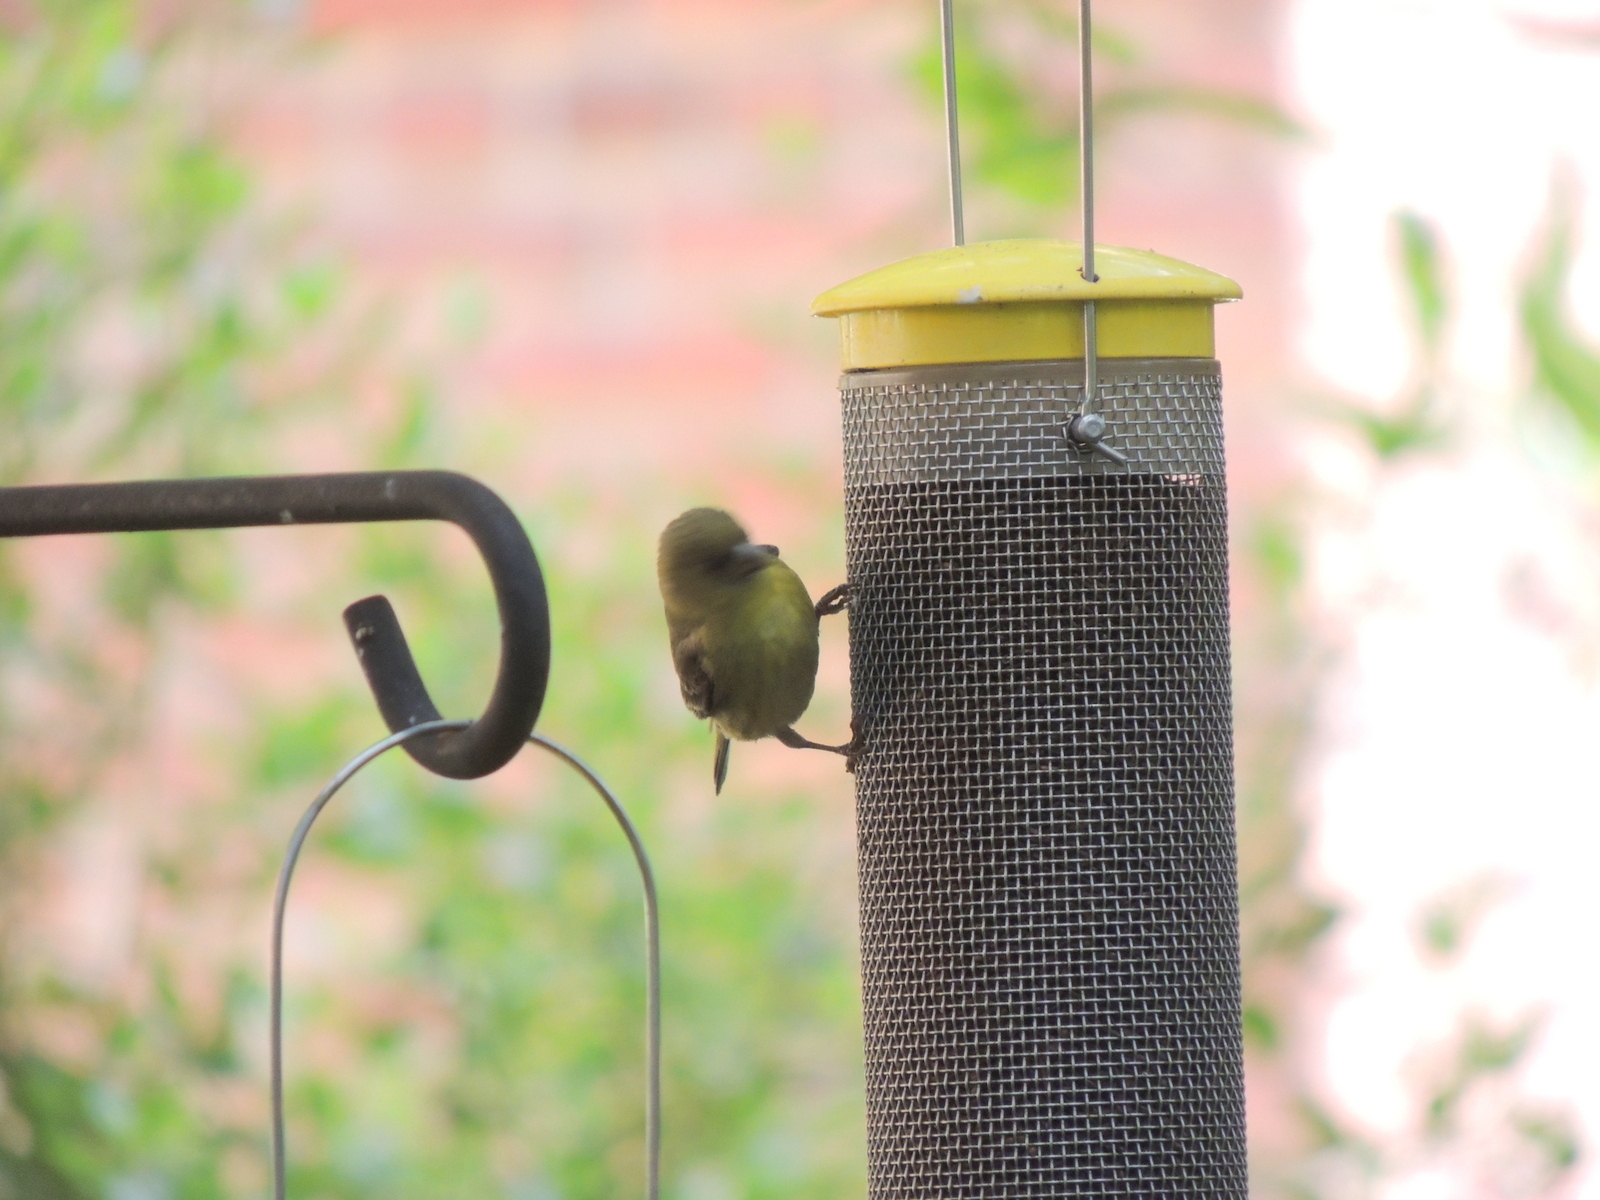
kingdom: Animalia
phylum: Chordata
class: Aves
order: Passeriformes
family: Fringillidae
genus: Spinus
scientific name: Spinus psaltria
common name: Lesser goldfinch
